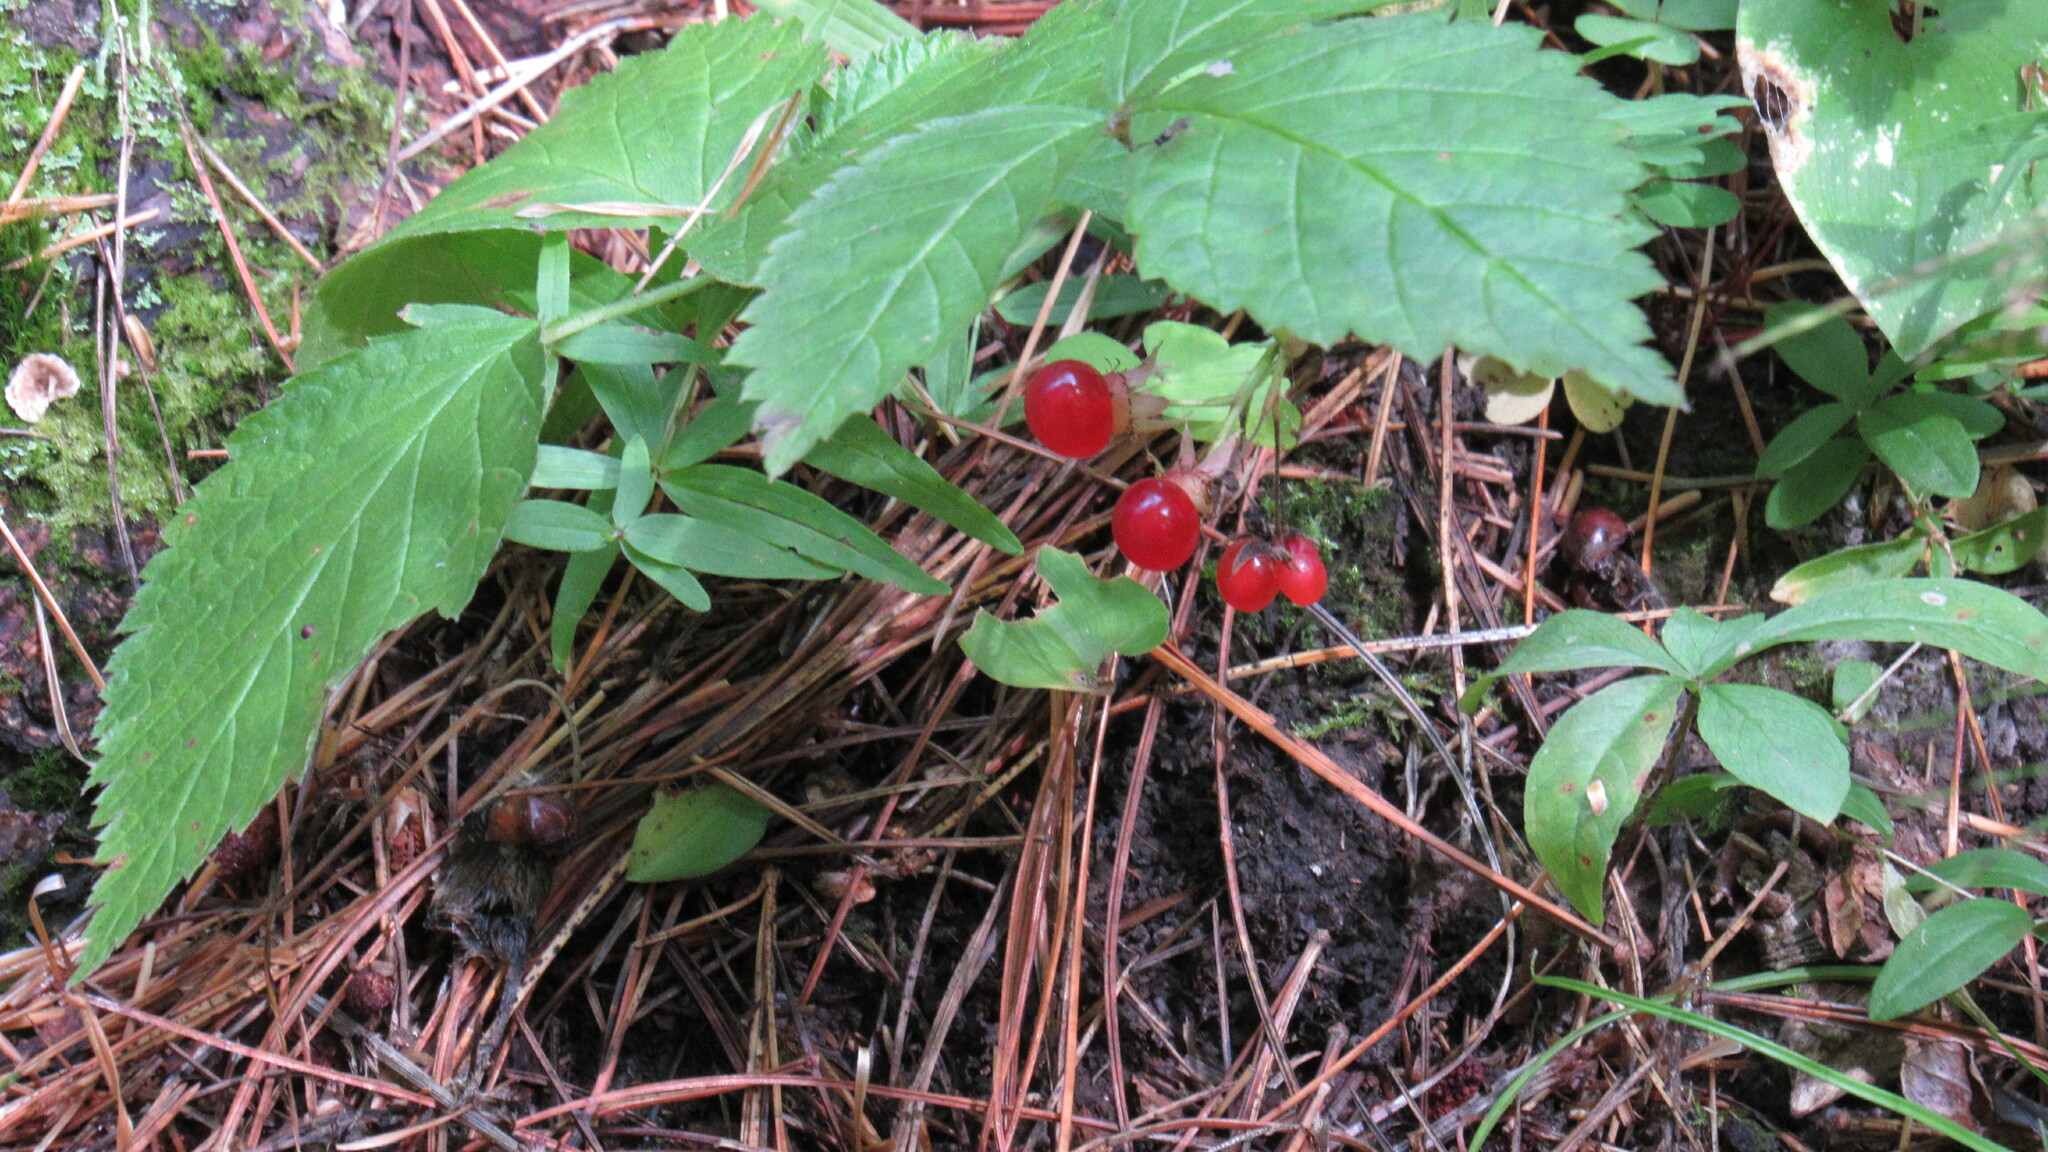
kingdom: Plantae
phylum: Tracheophyta
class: Magnoliopsida
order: Rosales
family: Rosaceae
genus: Rubus
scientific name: Rubus saxatilis
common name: Stone bramble
